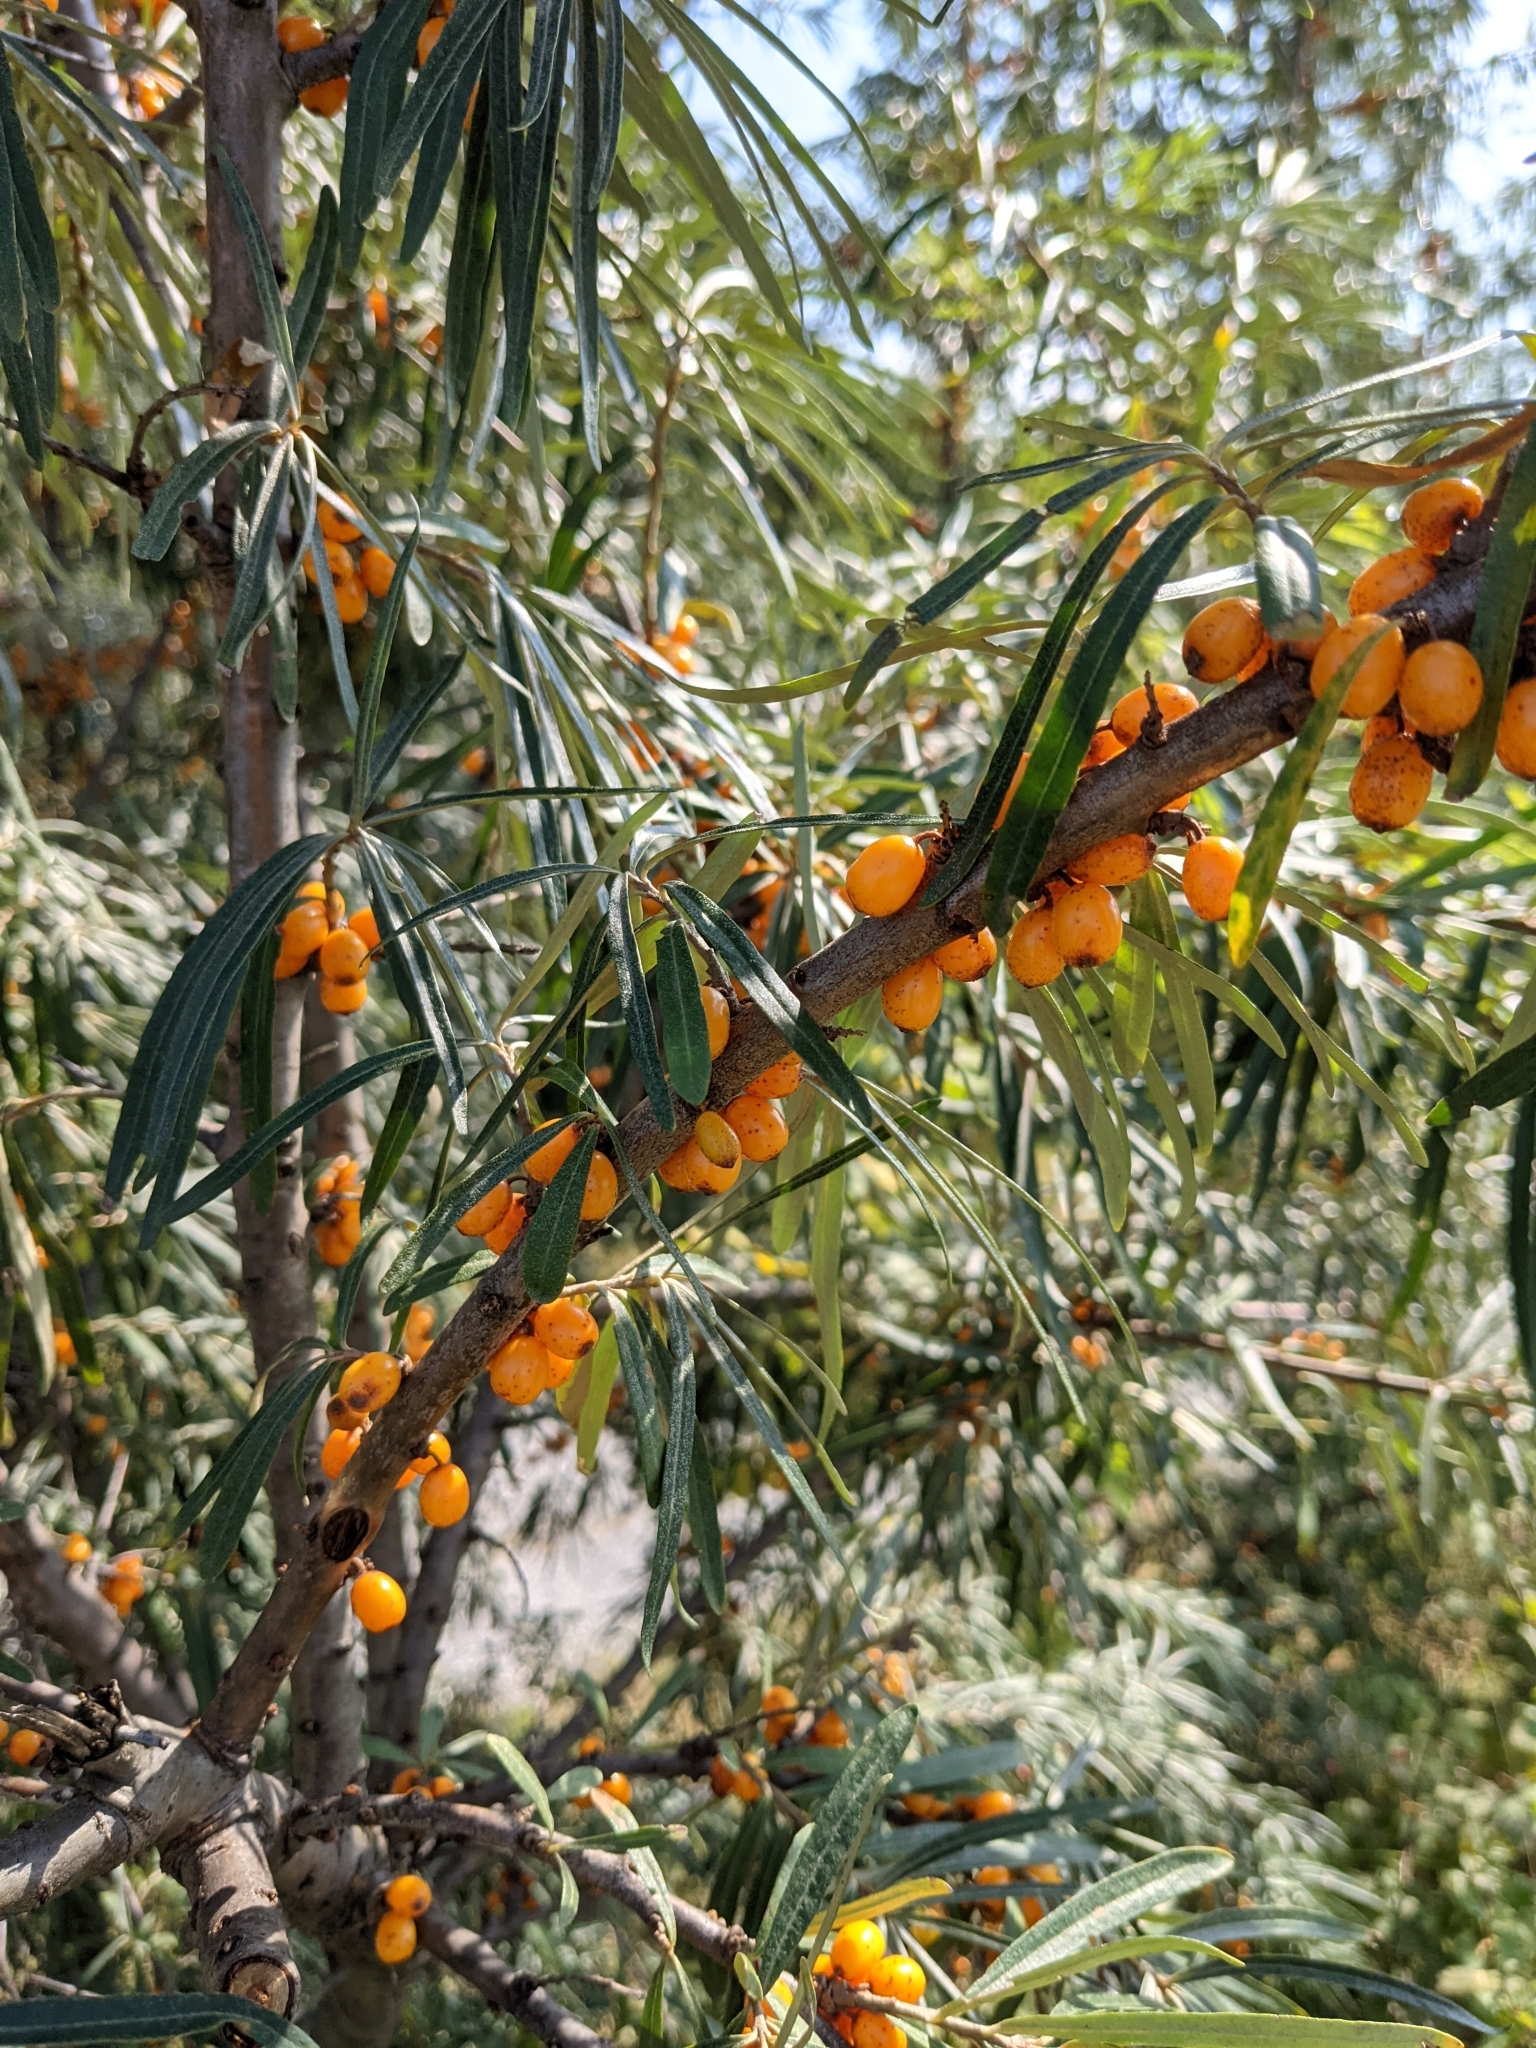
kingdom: Plantae
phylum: Tracheophyta
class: Magnoliopsida
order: Rosales
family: Elaeagnaceae
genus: Hippophae
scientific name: Hippophae rhamnoides
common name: Sea-buckthorn
